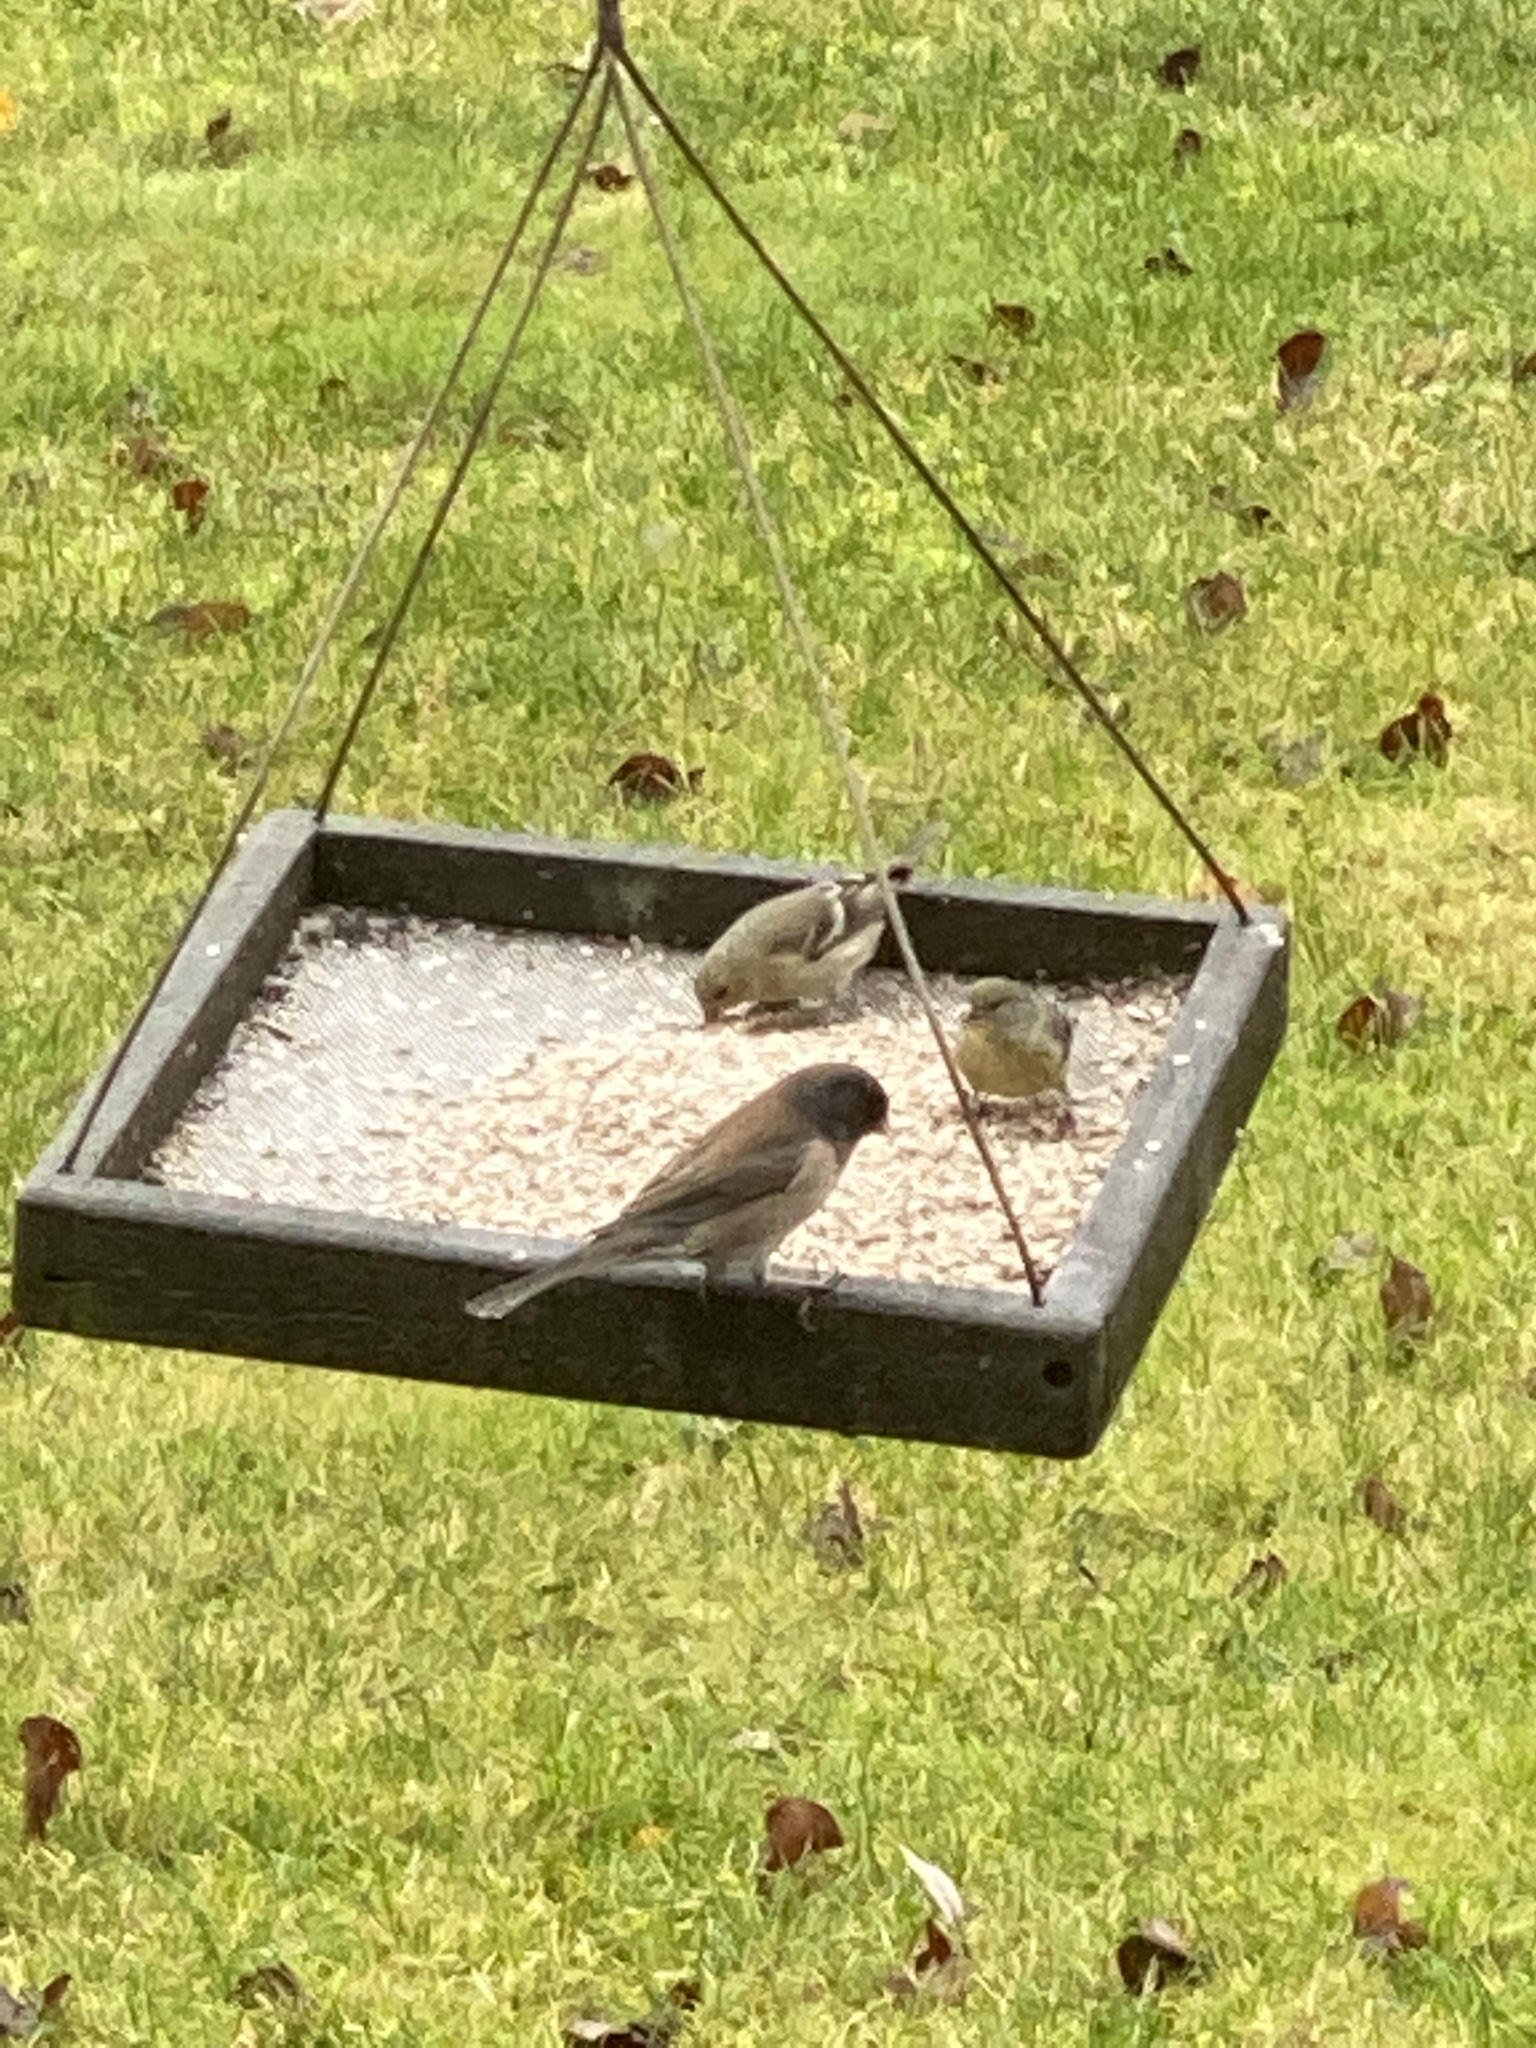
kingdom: Animalia
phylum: Chordata
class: Aves
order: Passeriformes
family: Passerellidae
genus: Junco
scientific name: Junco hyemalis
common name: Dark-eyed junco
